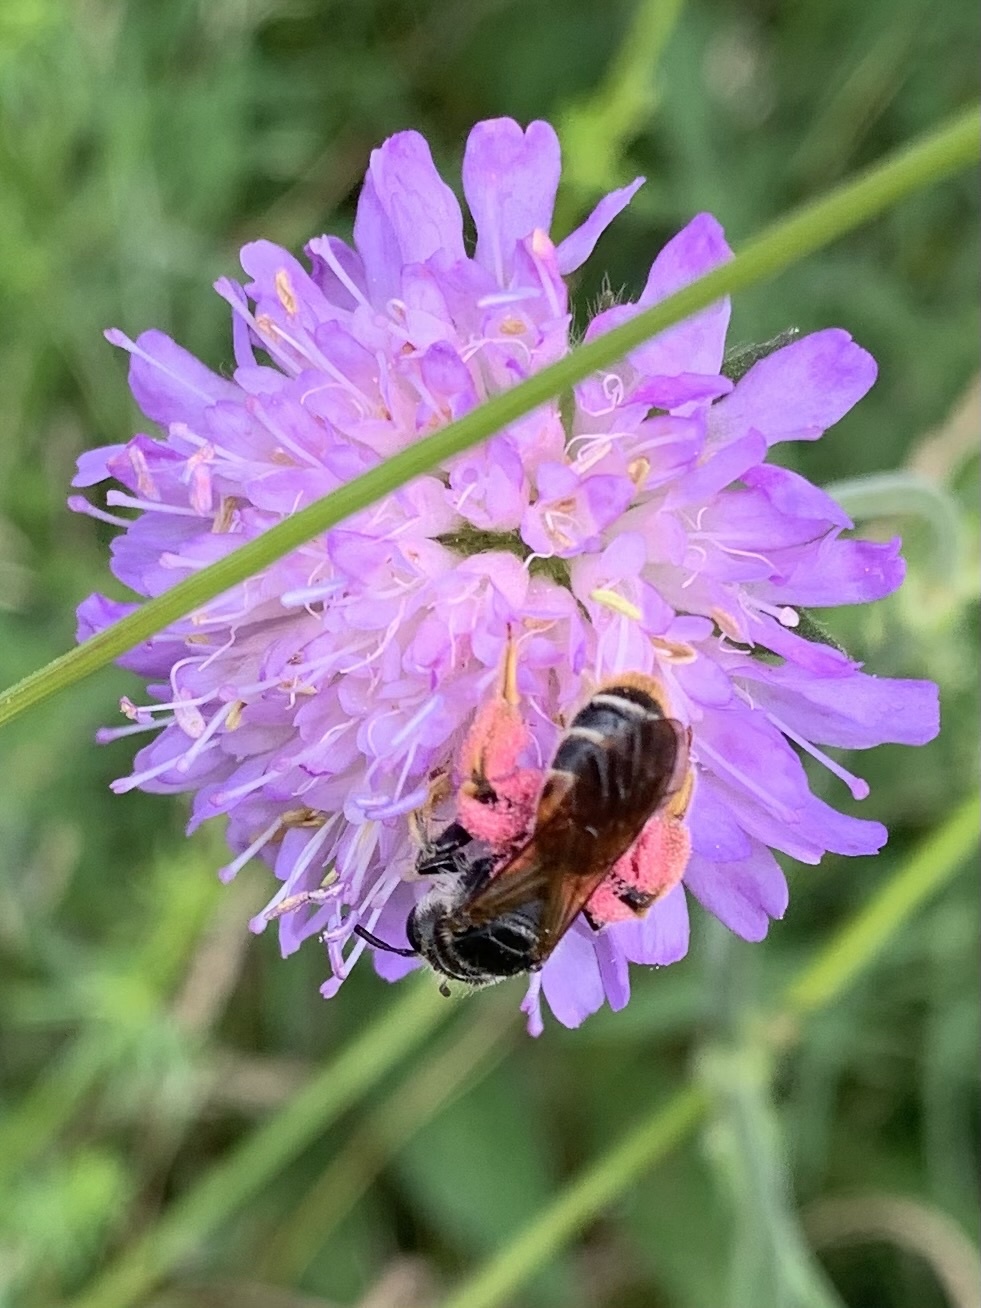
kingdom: Animalia
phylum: Arthropoda
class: Insecta
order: Hymenoptera
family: Andrenidae
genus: Andrena
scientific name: Andrena hattorfiana
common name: Large scabious mining bee
